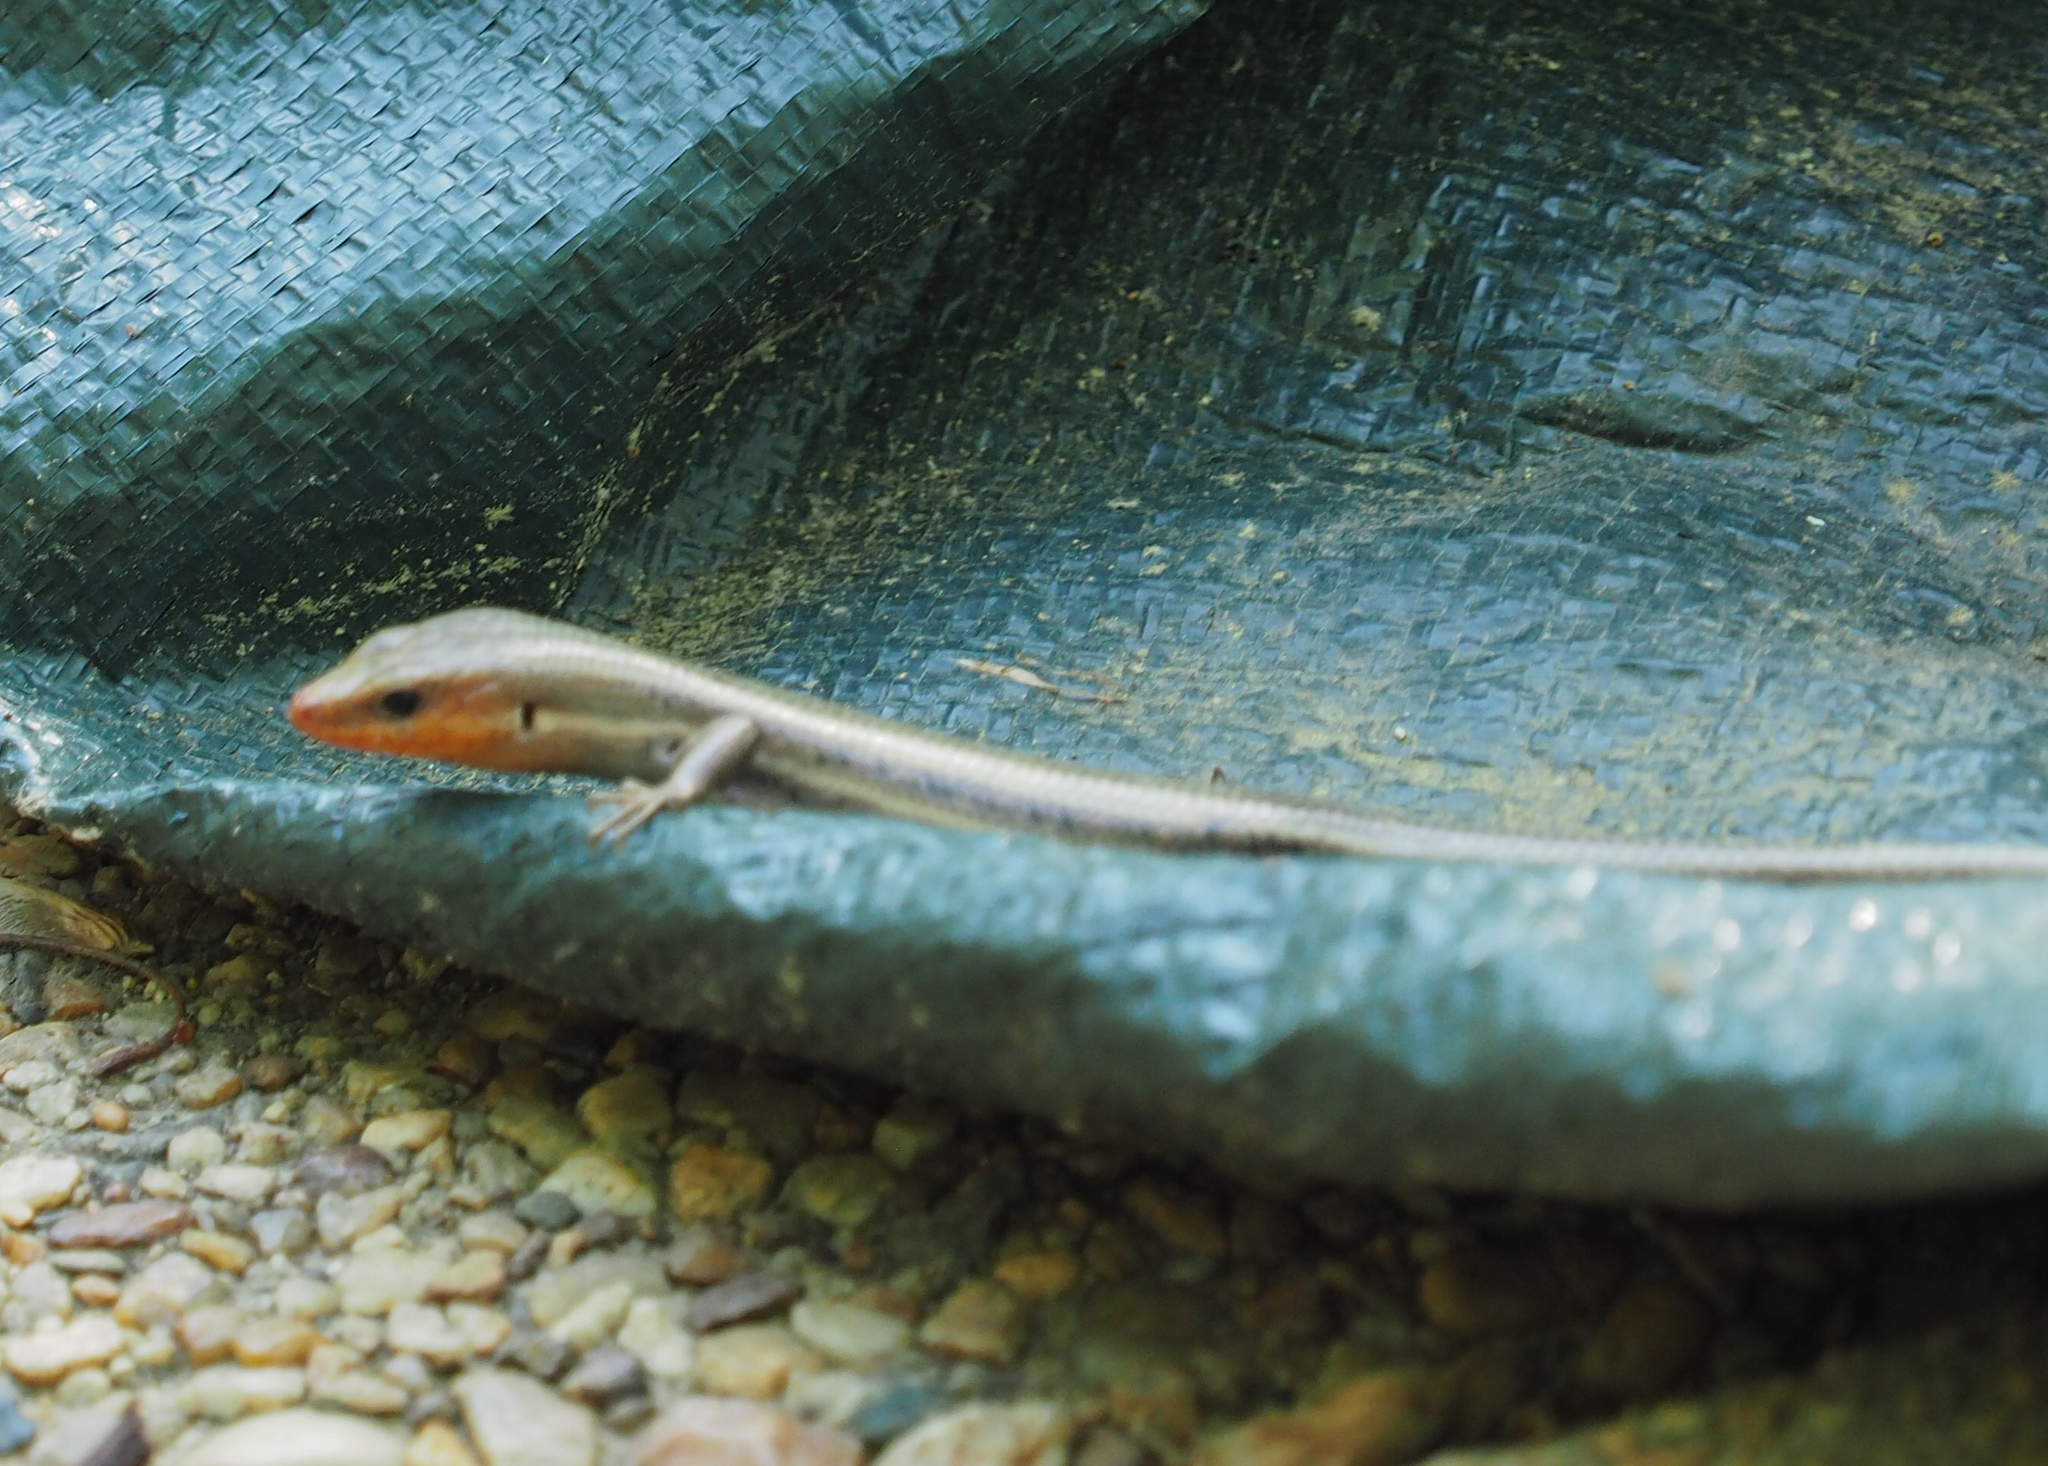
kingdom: Animalia
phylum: Chordata
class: Squamata
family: Scincidae
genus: Plestiodon
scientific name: Plestiodon fasciatus
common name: Five-lined skink
